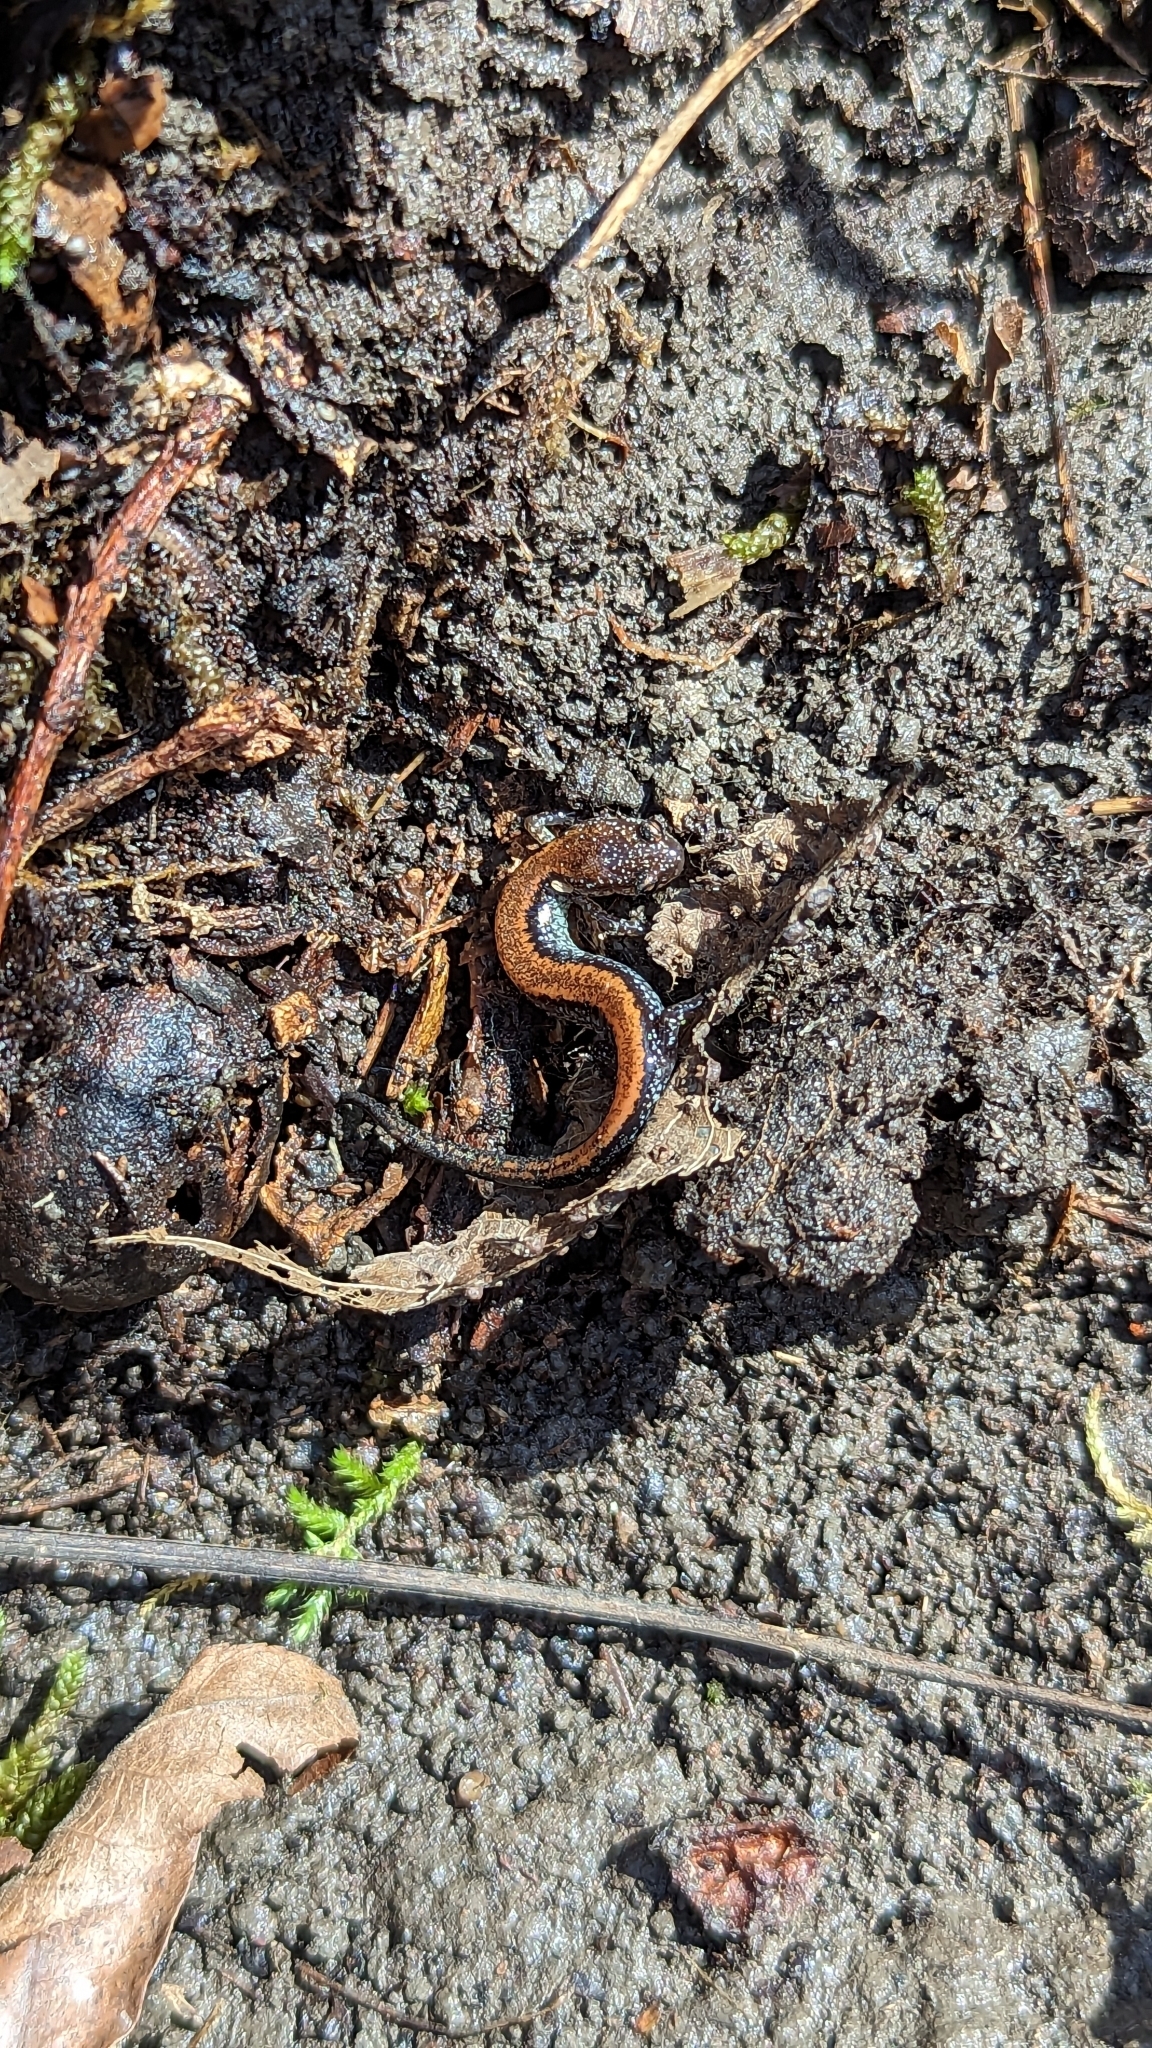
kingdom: Animalia
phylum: Chordata
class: Amphibia
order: Caudata
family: Plethodontidae
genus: Plethodon
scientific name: Plethodon cinereus
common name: Redback salamander
